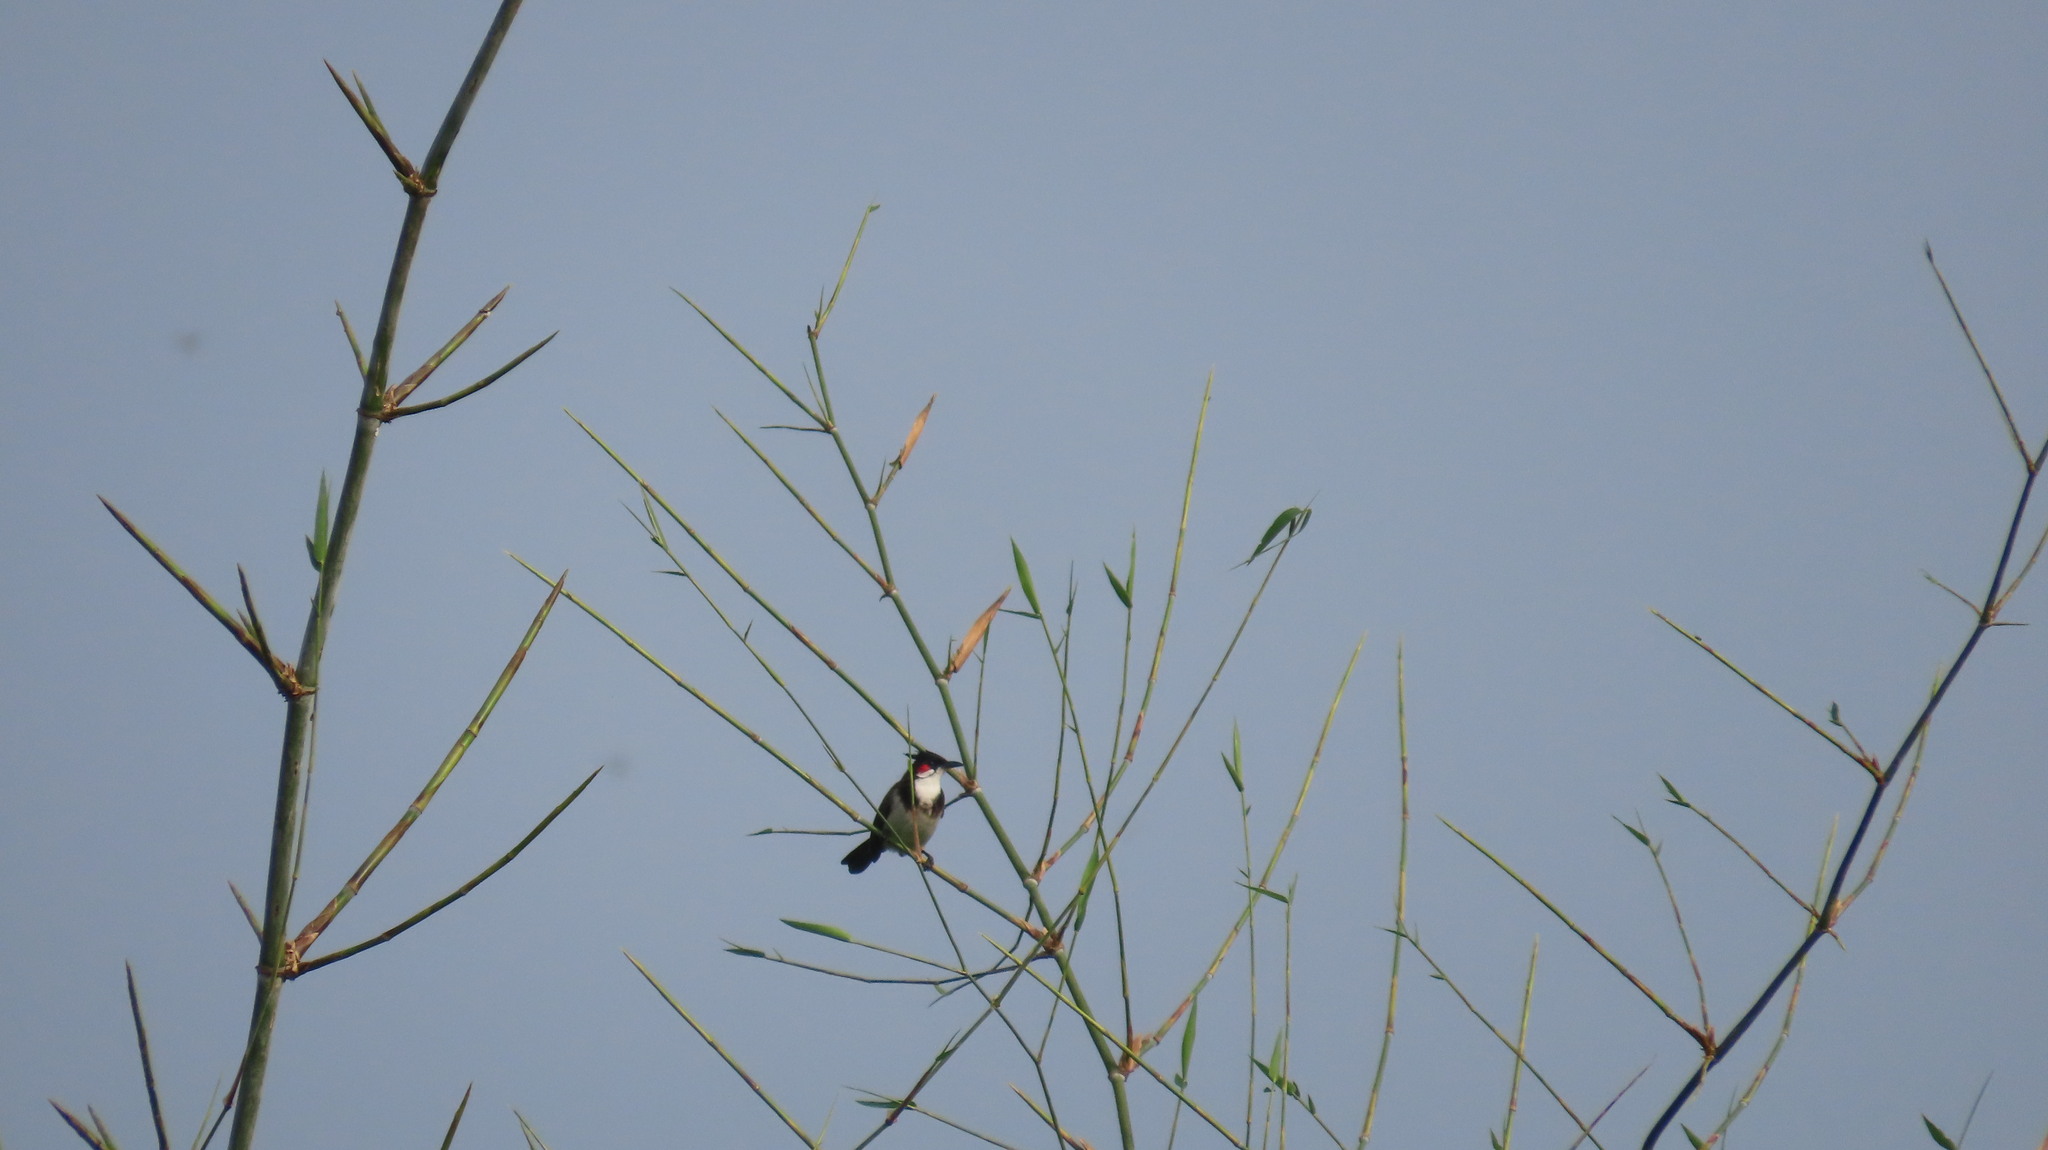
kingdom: Animalia
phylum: Chordata
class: Aves
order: Passeriformes
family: Pycnonotidae
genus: Pycnonotus
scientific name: Pycnonotus jocosus
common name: Red-whiskered bulbul
